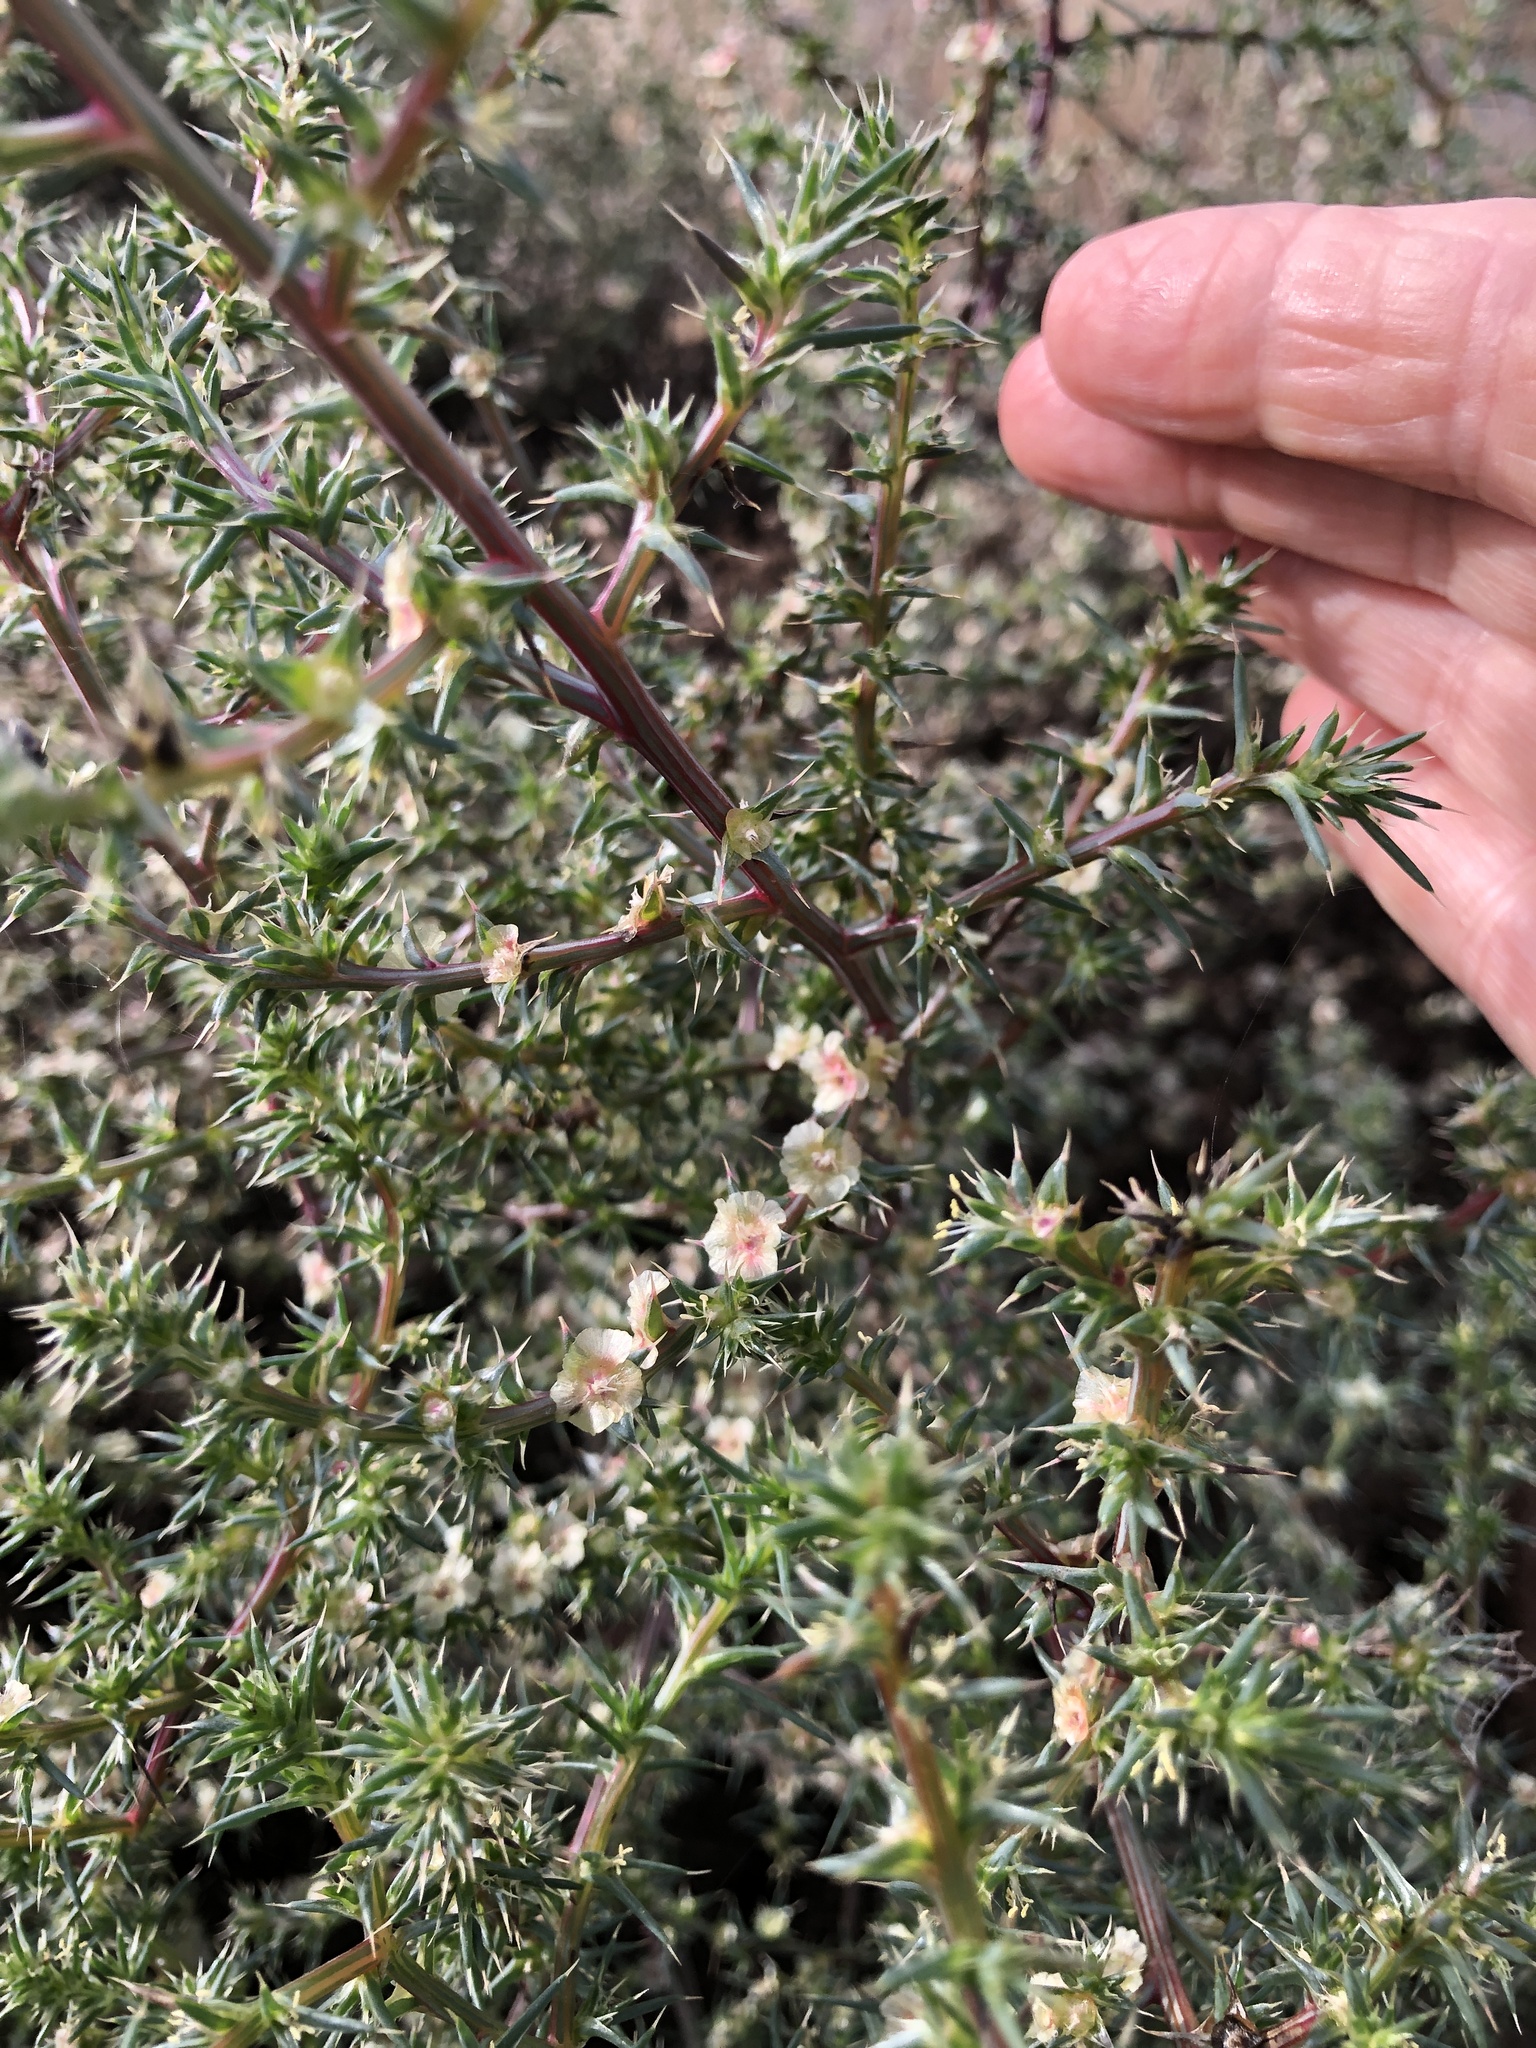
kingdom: Plantae
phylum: Tracheophyta
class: Magnoliopsida
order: Caryophyllales
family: Amaranthaceae
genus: Salsola
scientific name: Salsola tragus
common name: Prickly russian thistle
